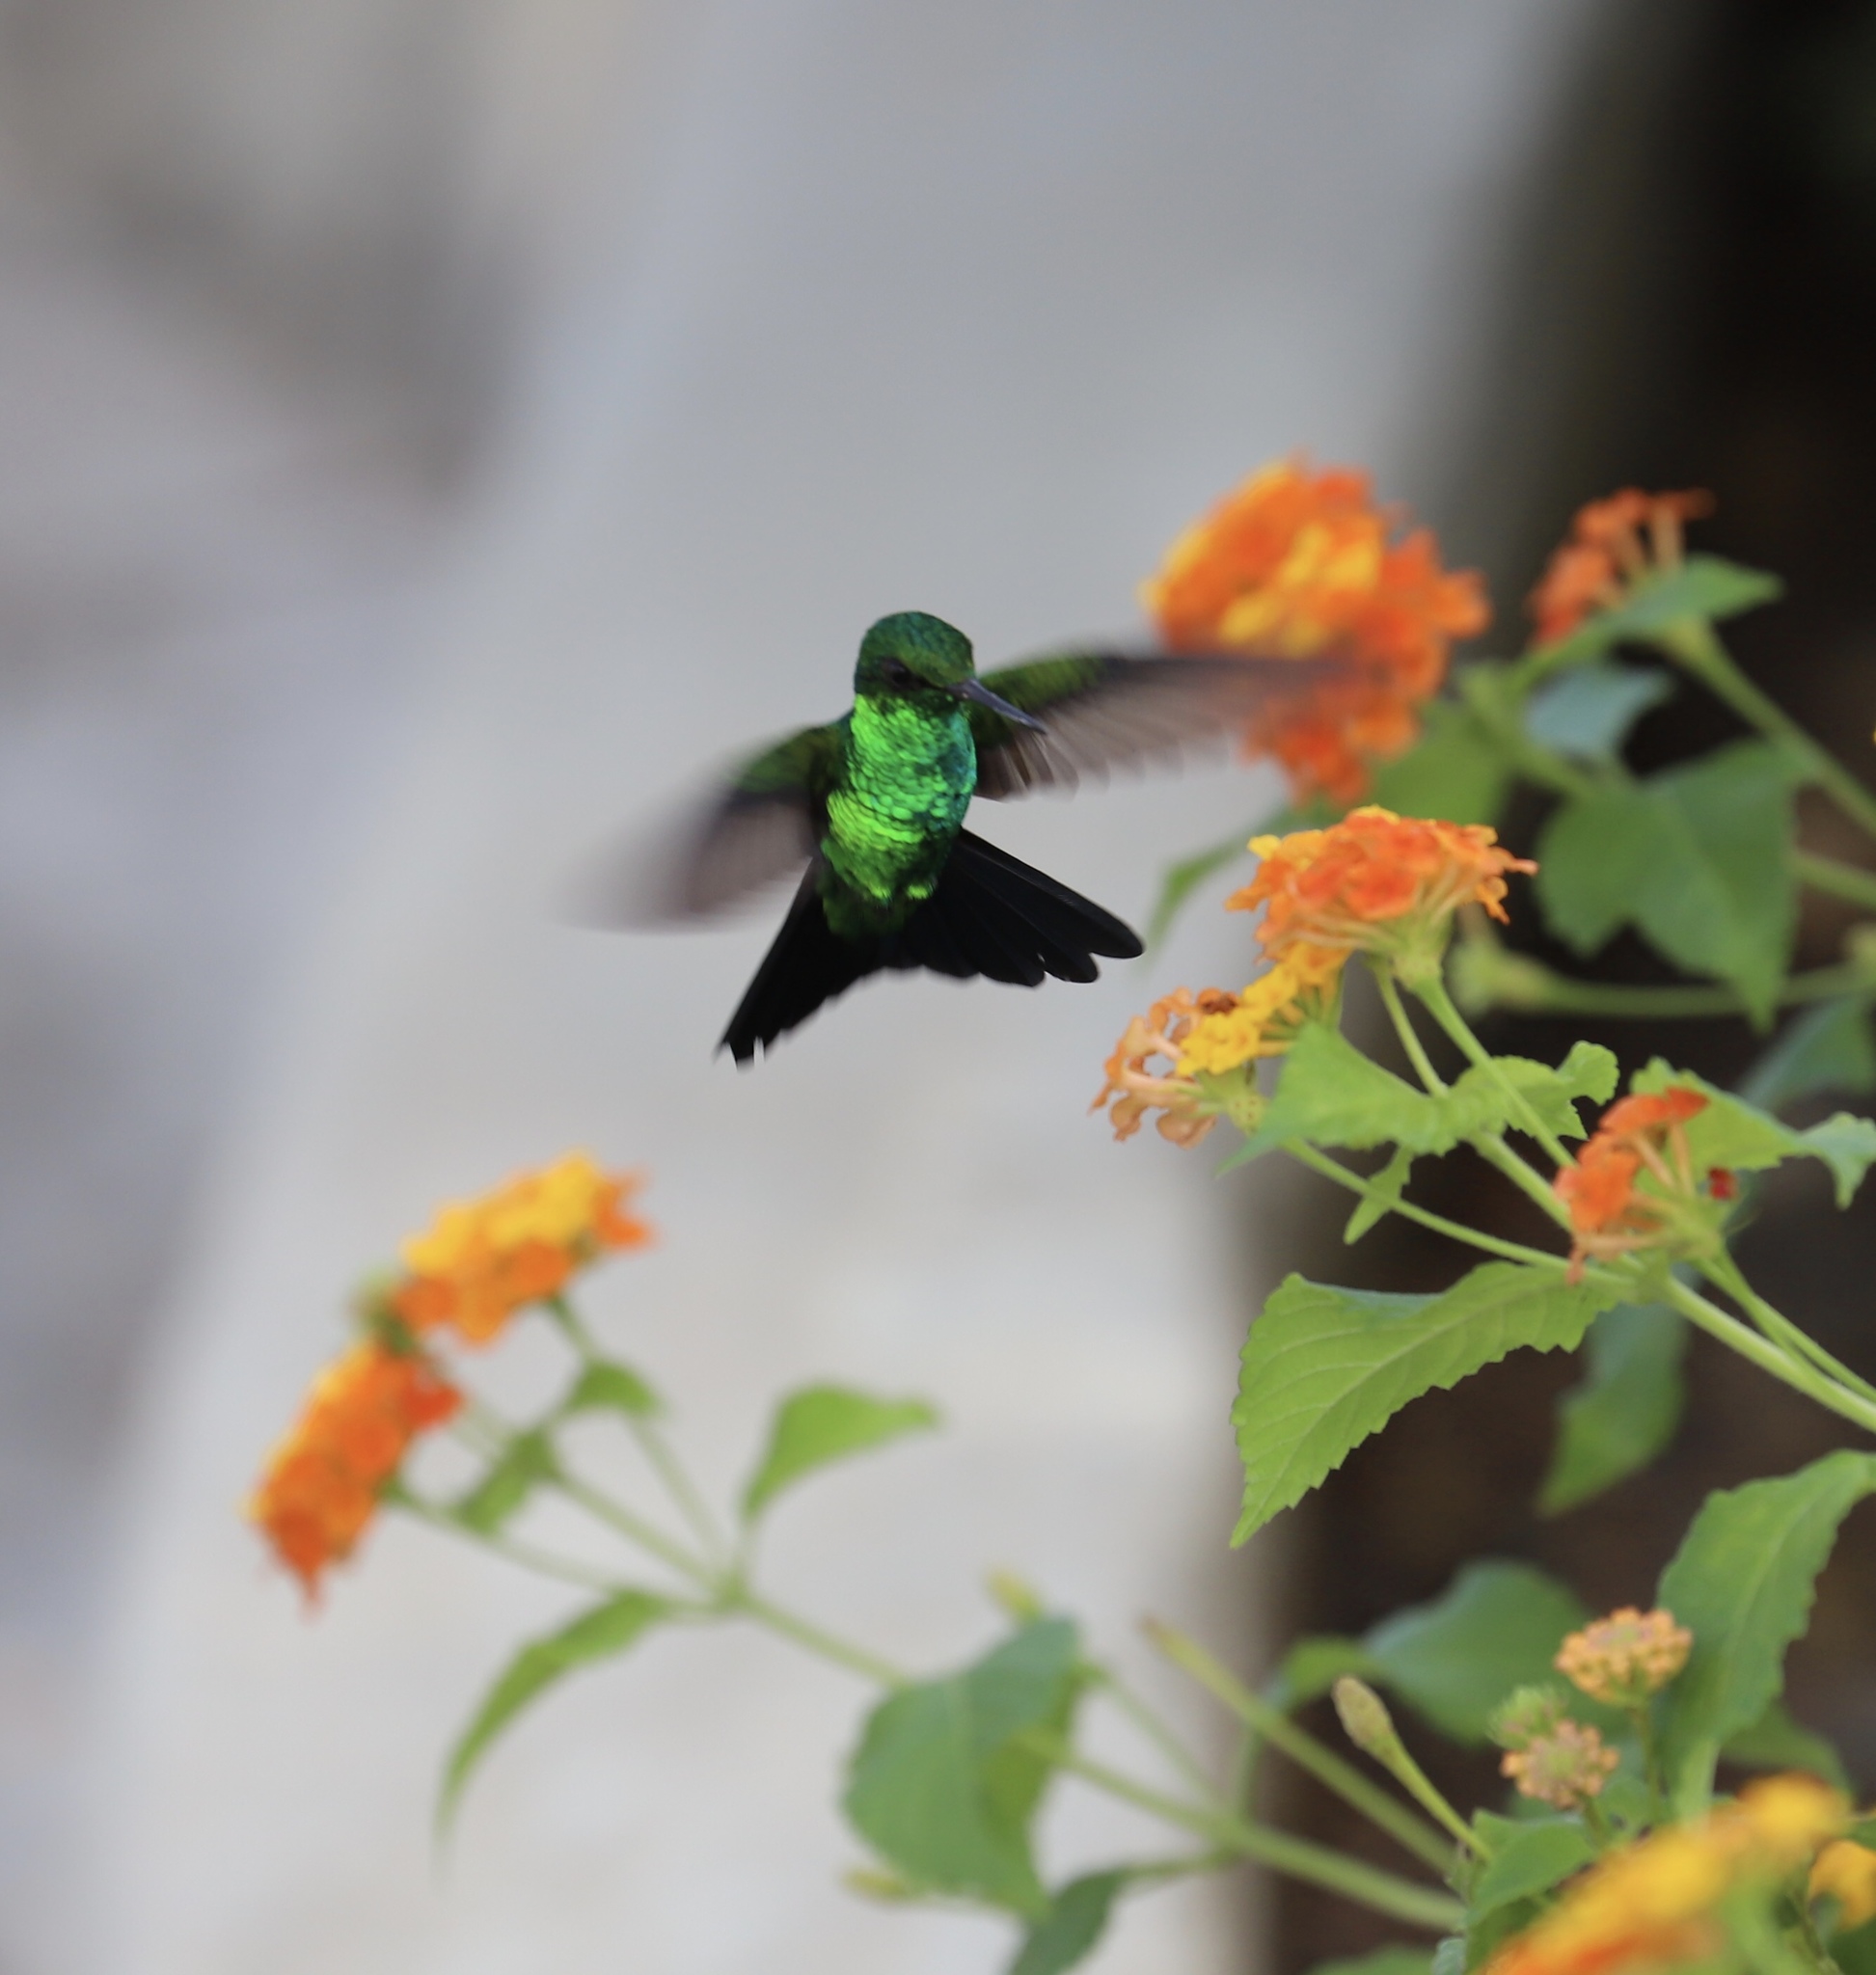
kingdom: Animalia
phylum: Chordata
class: Aves
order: Apodiformes
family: Trochilidae
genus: Chlorostilbon
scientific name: Chlorostilbon assimilis
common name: Garden emerald
